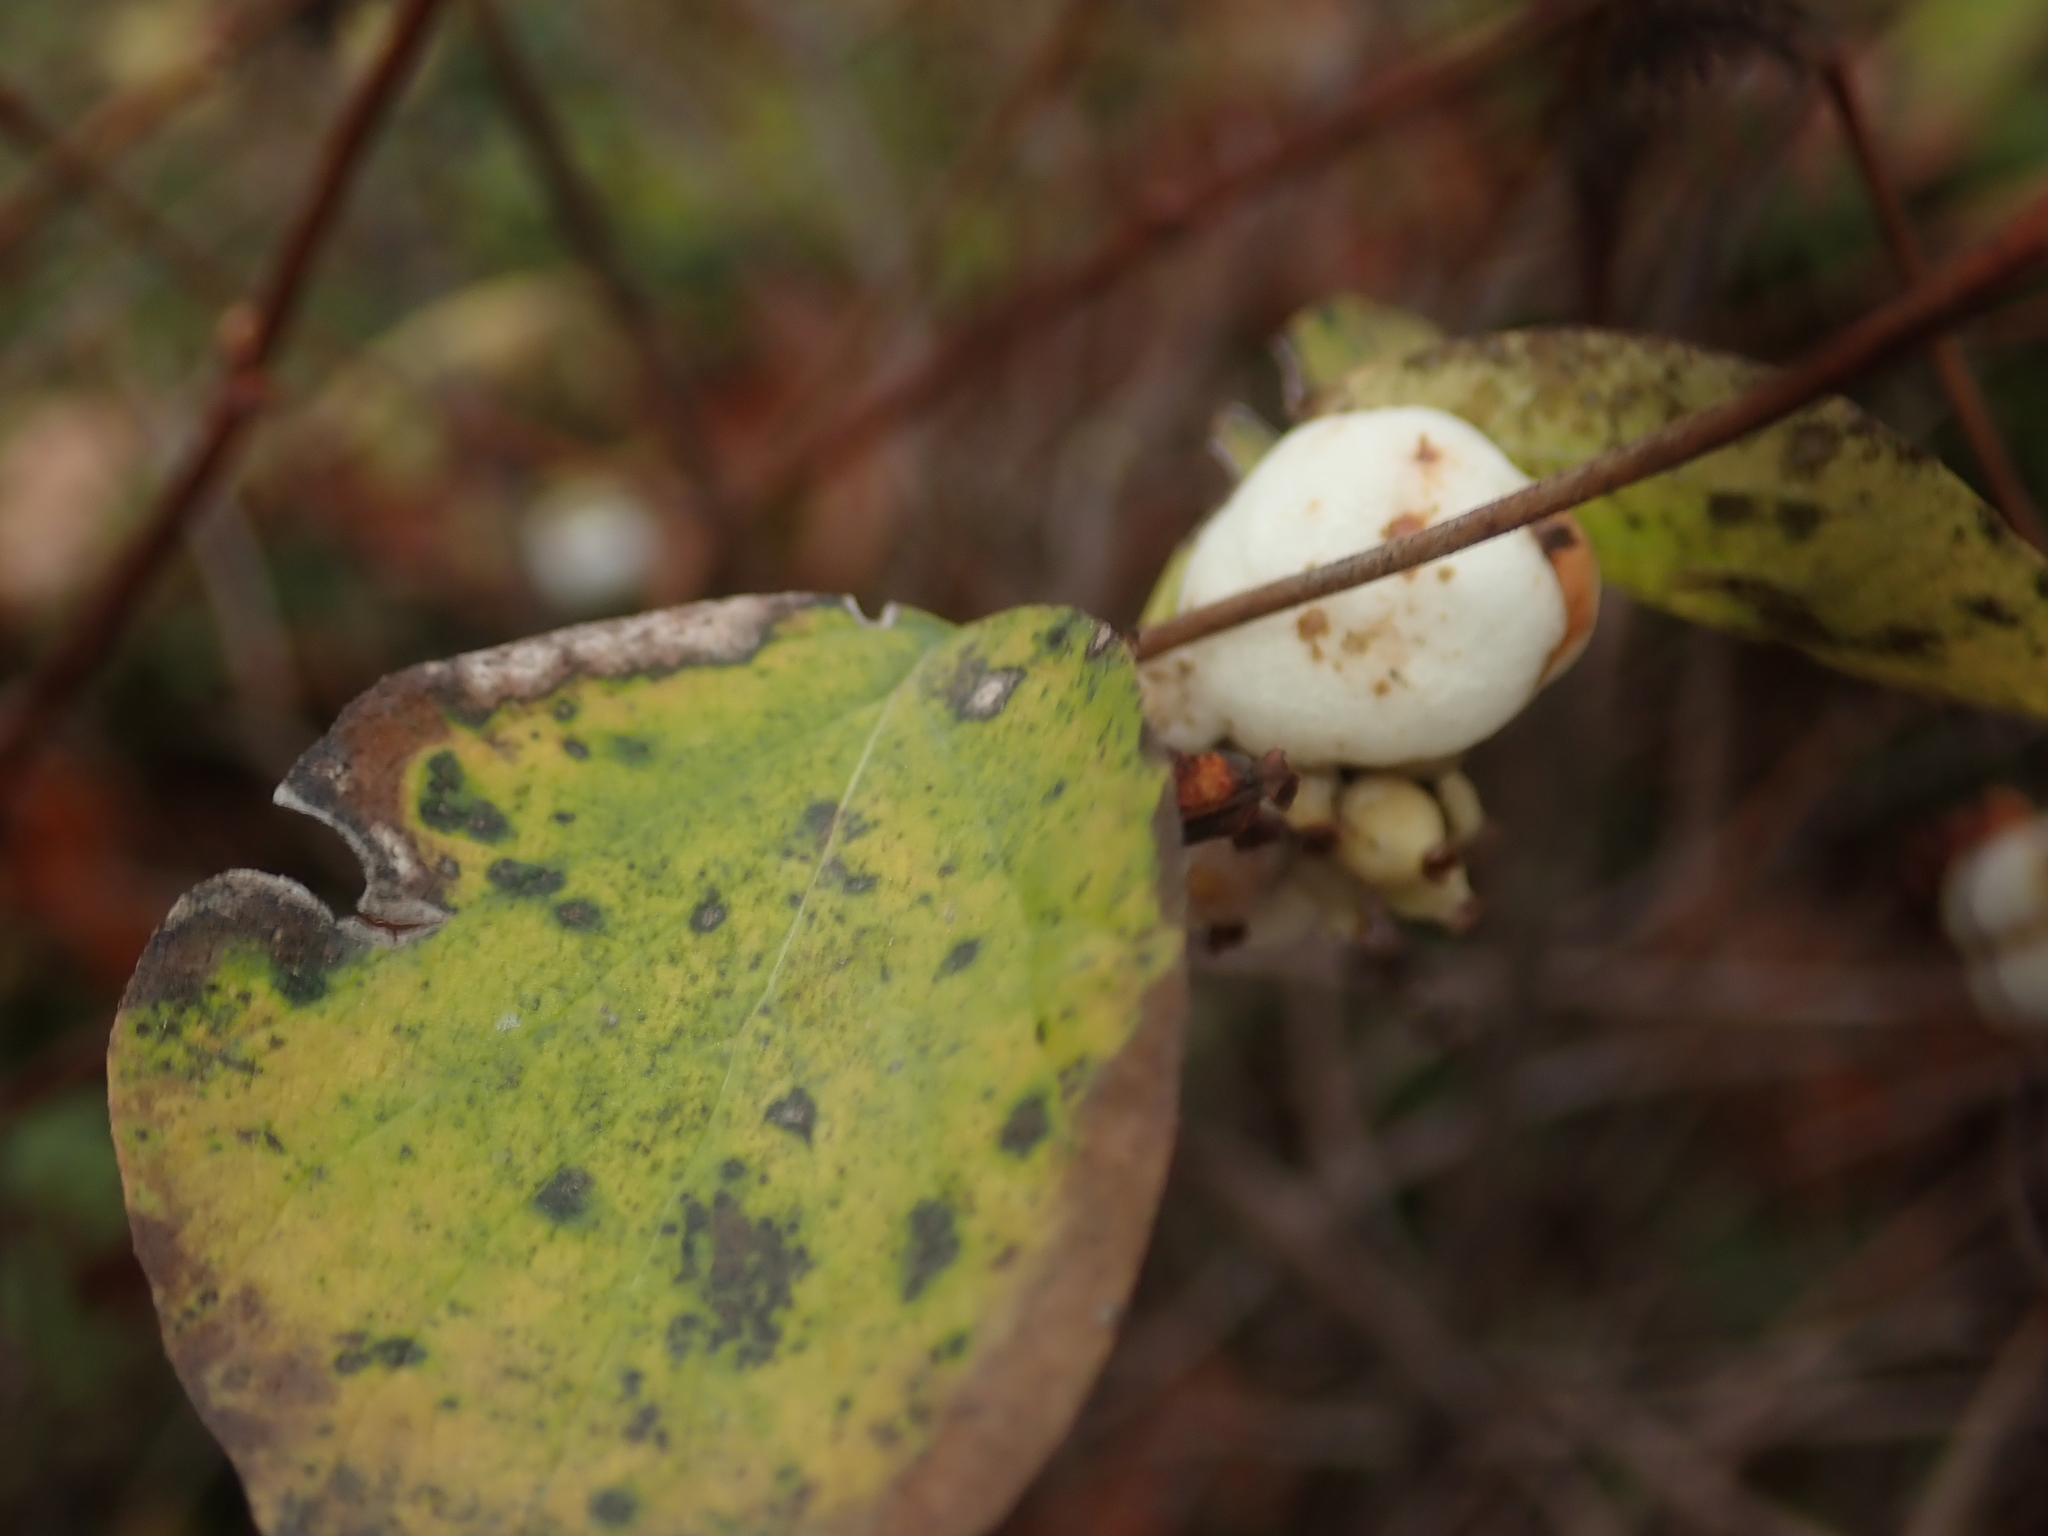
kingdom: Plantae
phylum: Tracheophyta
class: Magnoliopsida
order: Dipsacales
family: Caprifoliaceae
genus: Symphoricarpos
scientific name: Symphoricarpos albus
